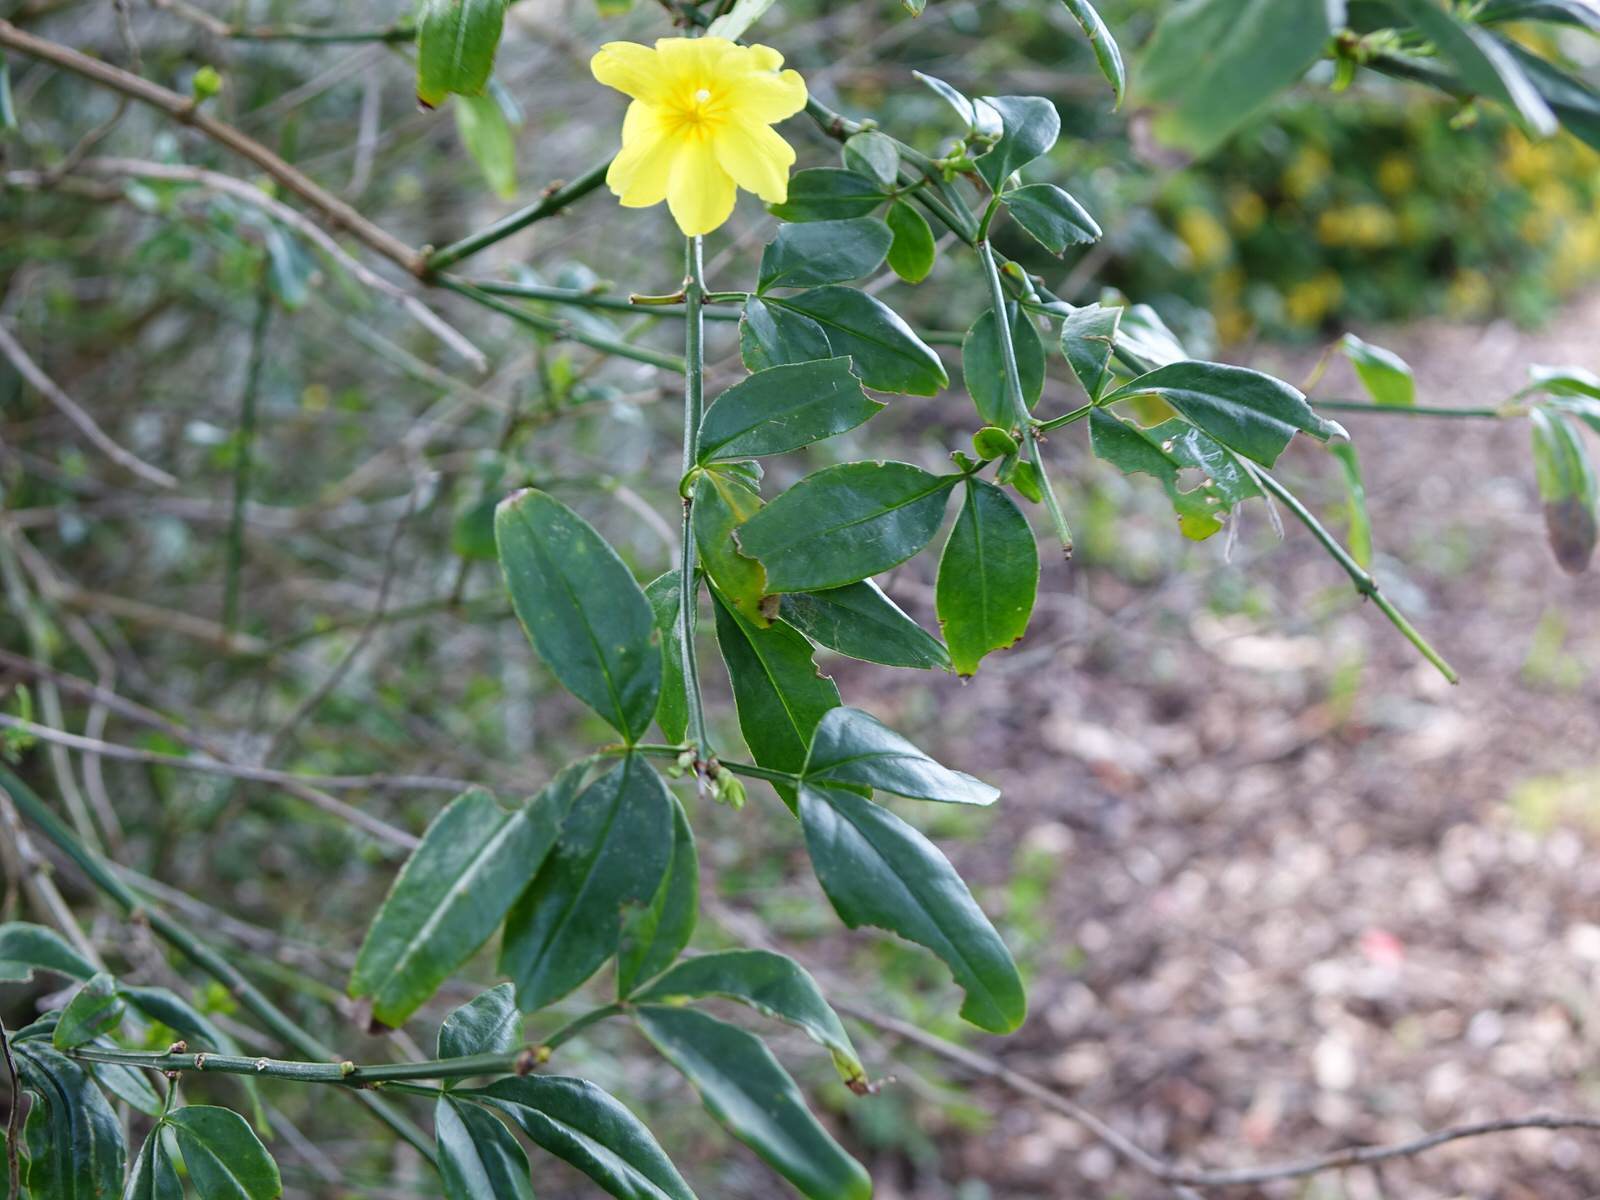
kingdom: Plantae
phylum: Tracheophyta
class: Magnoliopsida
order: Lamiales
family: Oleaceae
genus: Jasminum
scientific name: Jasminum mesnyi
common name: Japanese jasmine
